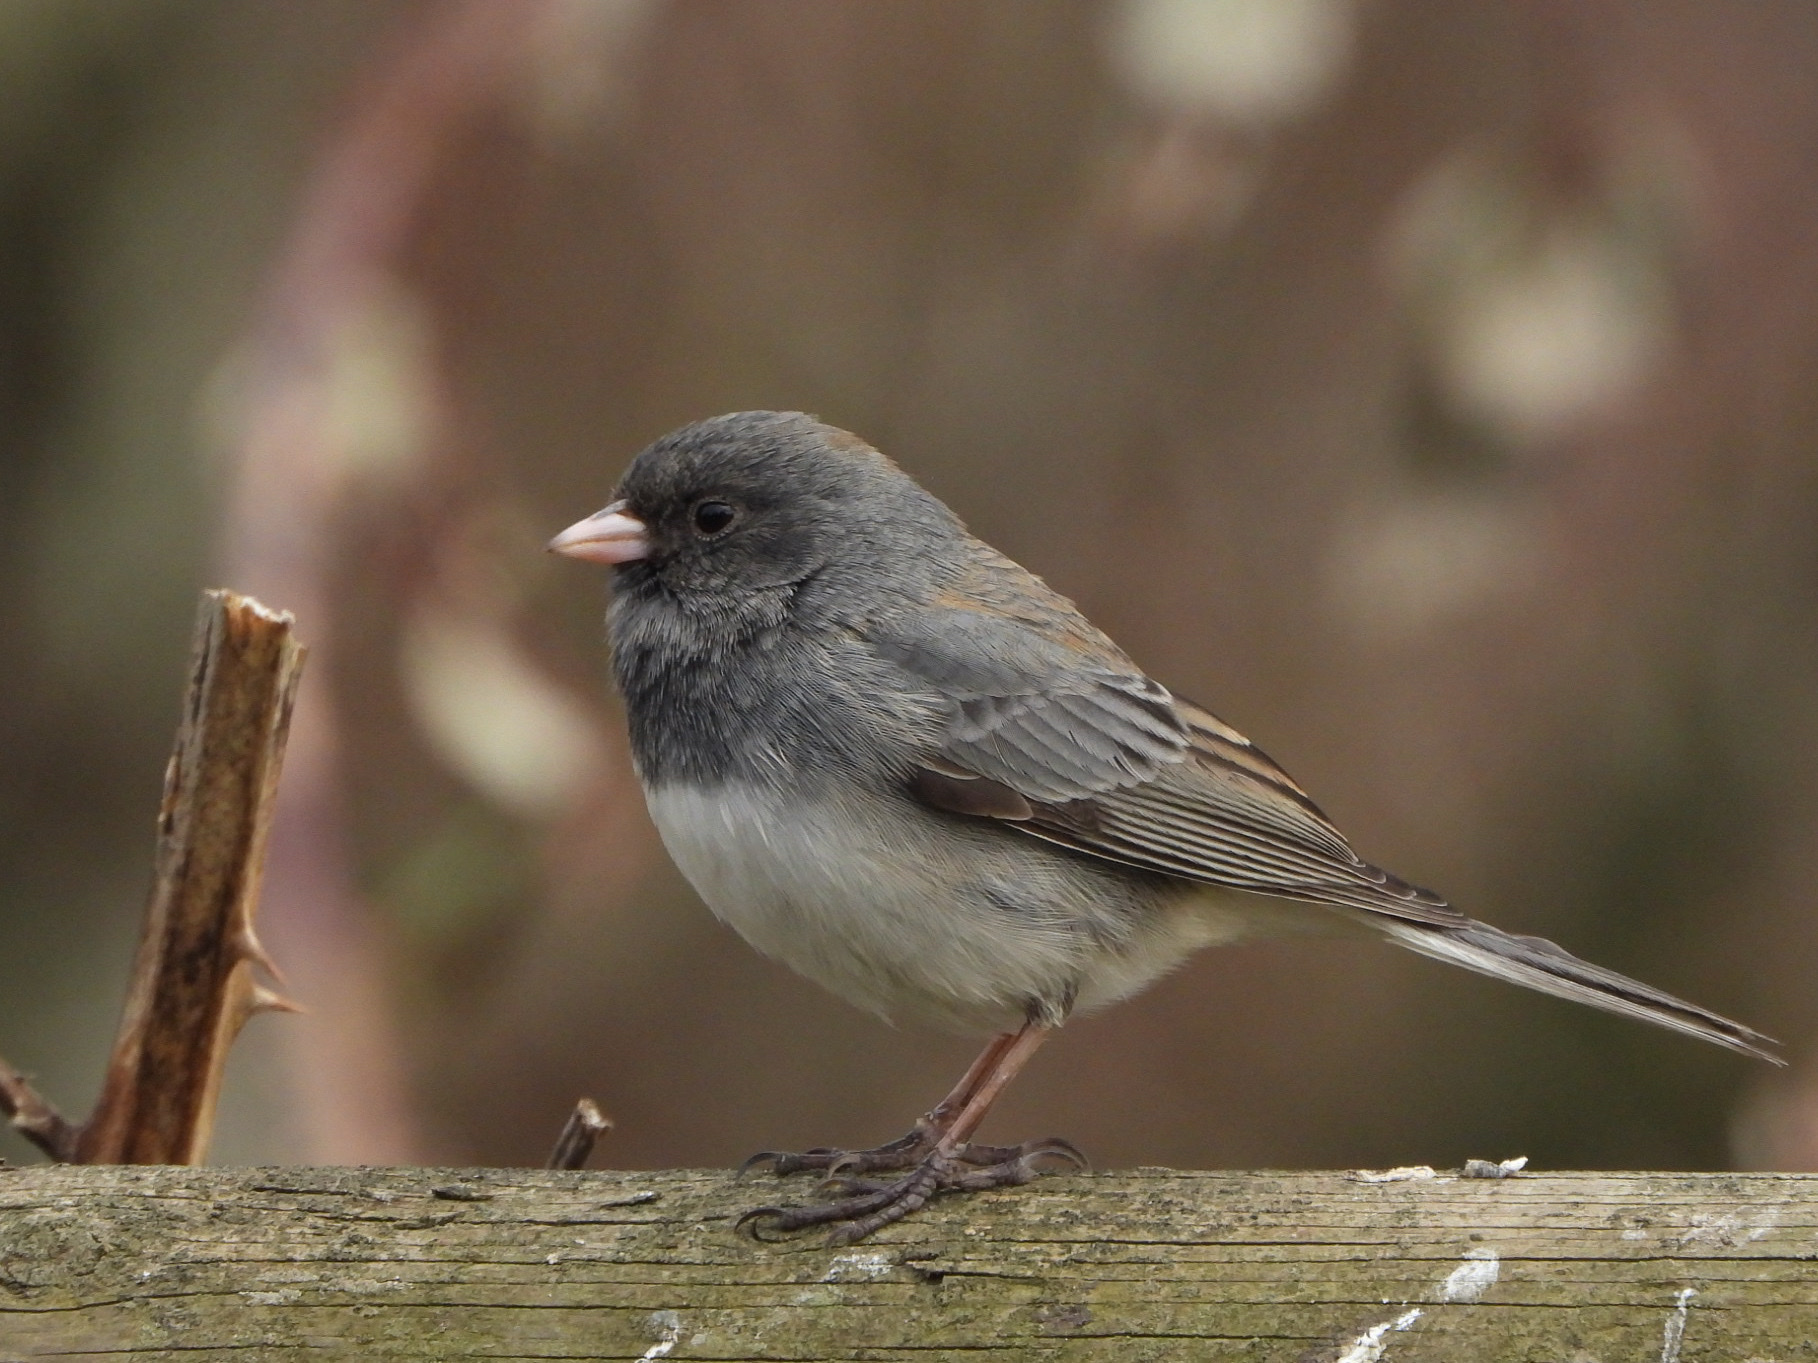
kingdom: Animalia
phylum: Chordata
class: Aves
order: Passeriformes
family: Passerellidae
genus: Junco
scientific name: Junco hyemalis
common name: Dark-eyed junco
